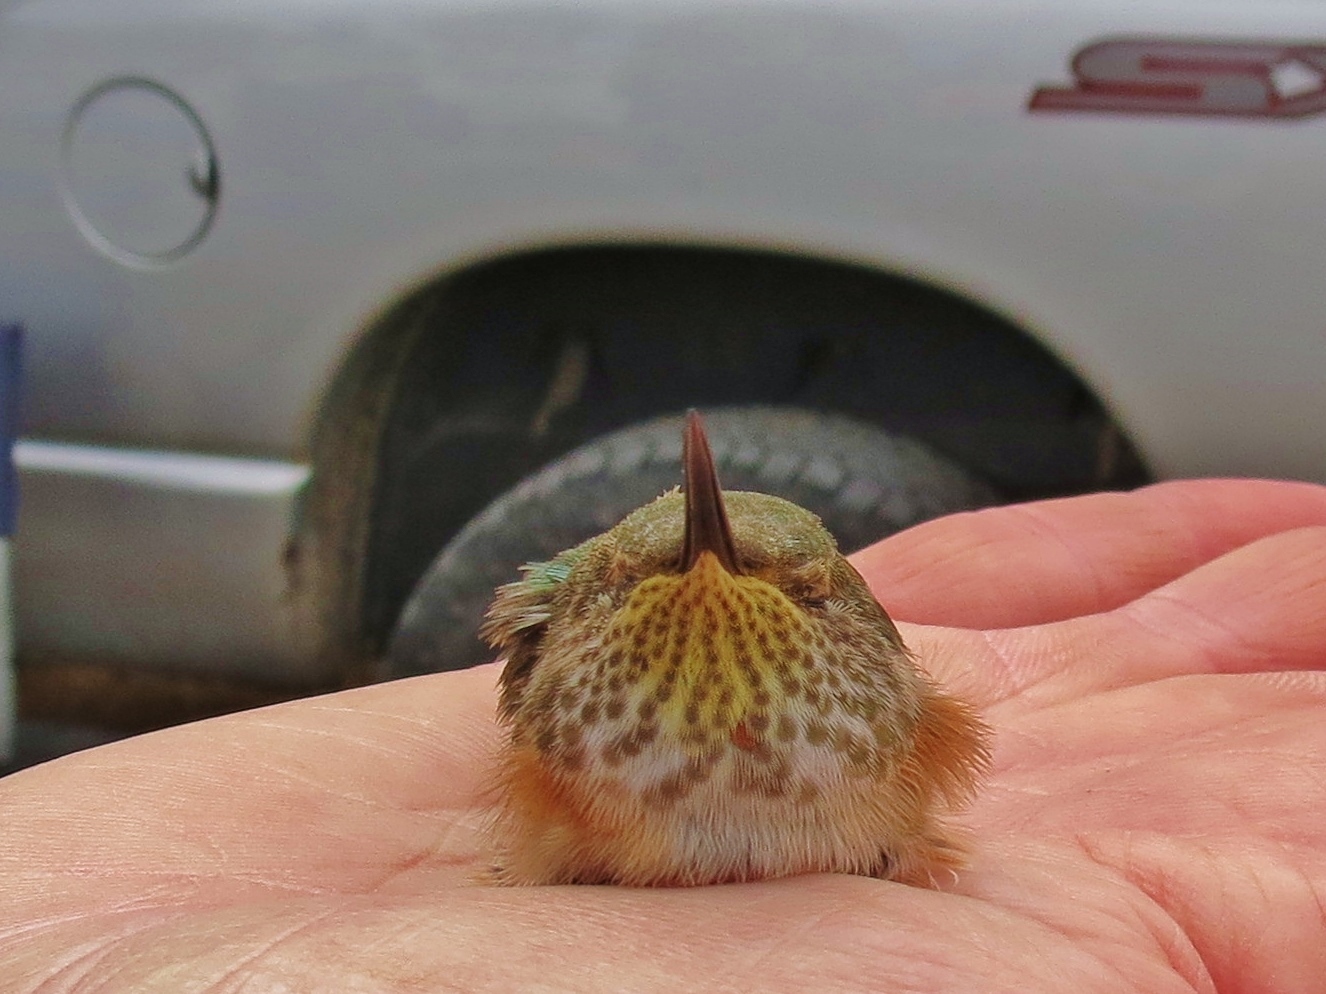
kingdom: Animalia
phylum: Chordata
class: Aves
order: Apodiformes
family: Trochilidae
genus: Selasphorus
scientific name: Selasphorus platycercus
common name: Broad-tailed hummingbird
